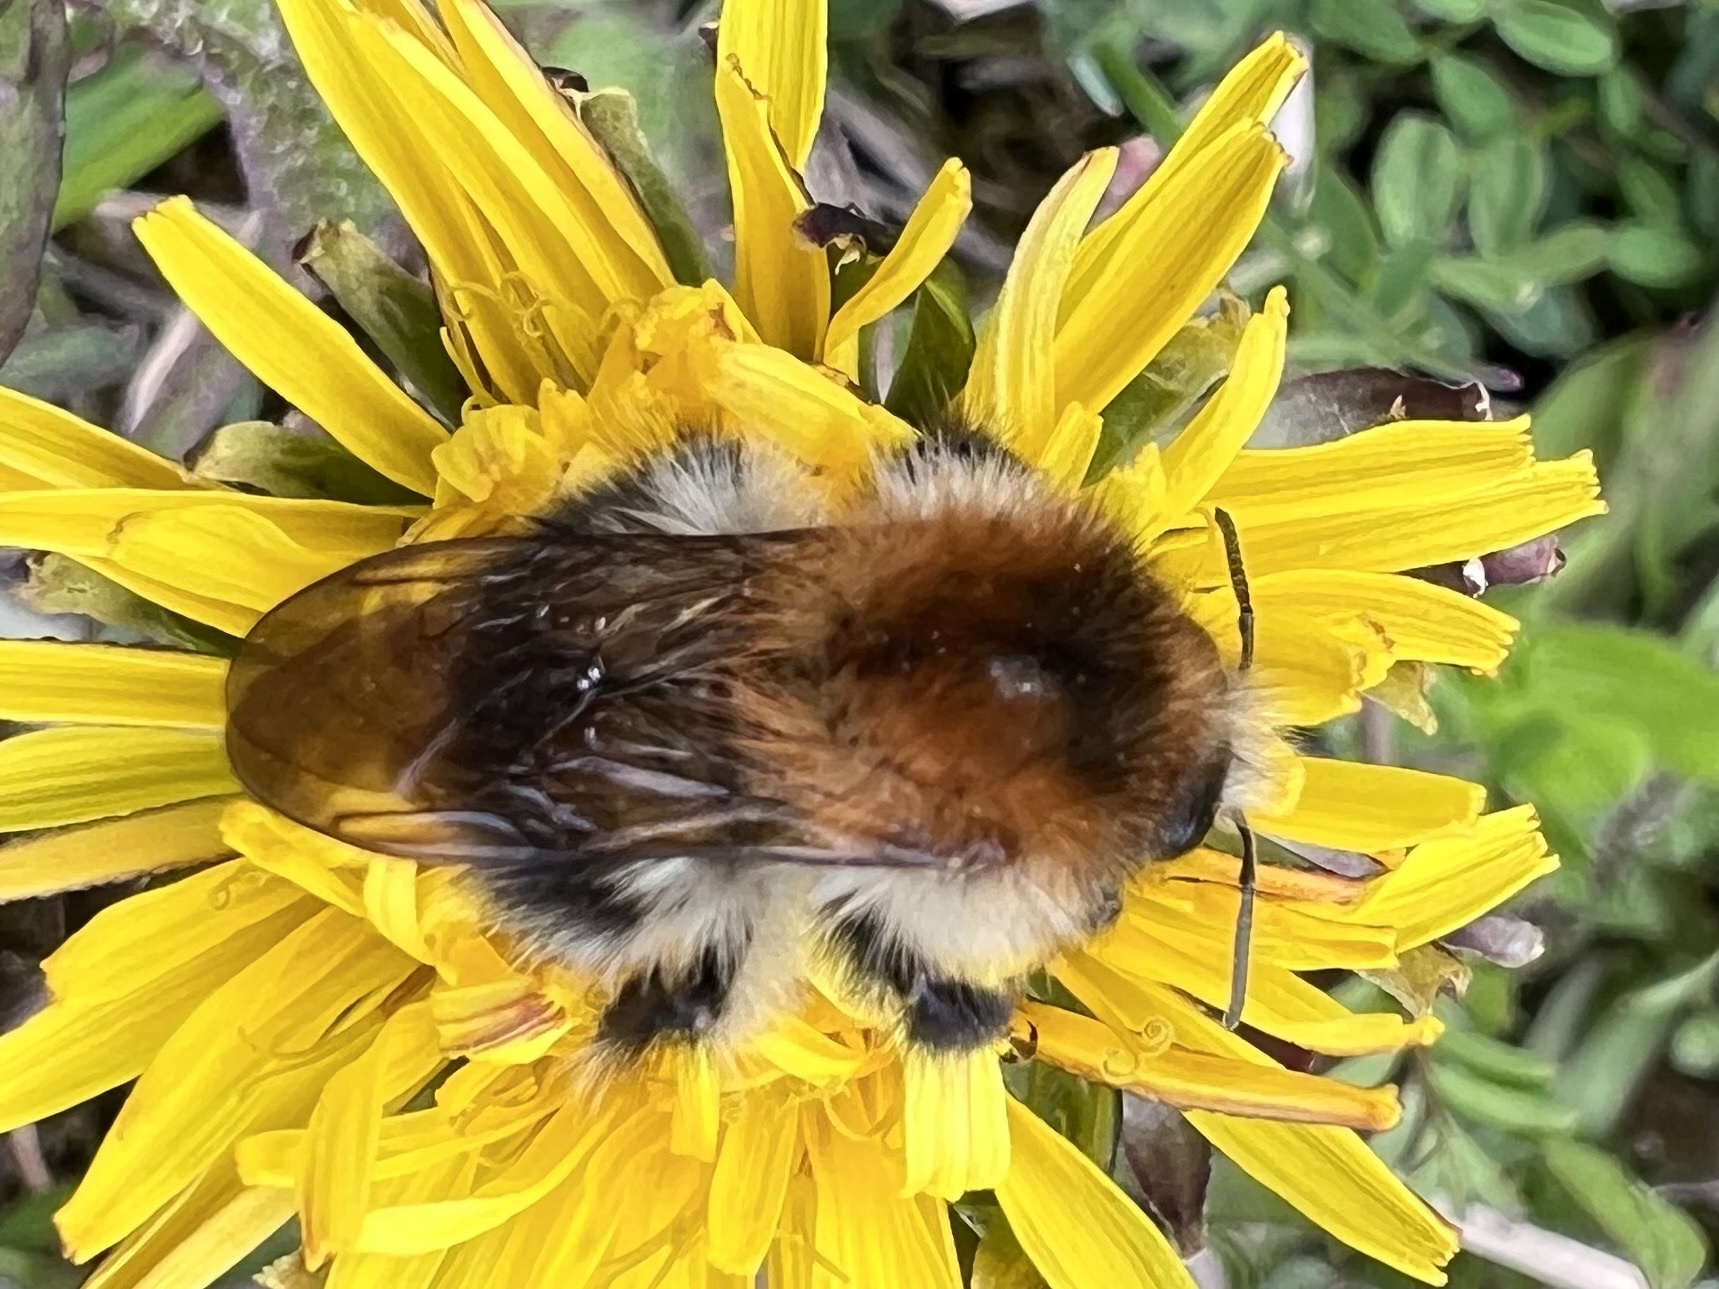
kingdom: Animalia
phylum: Arthropoda
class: Insecta
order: Hymenoptera
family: Apidae
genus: Bombus
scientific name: Bombus pascuorum
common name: Common carder bee
